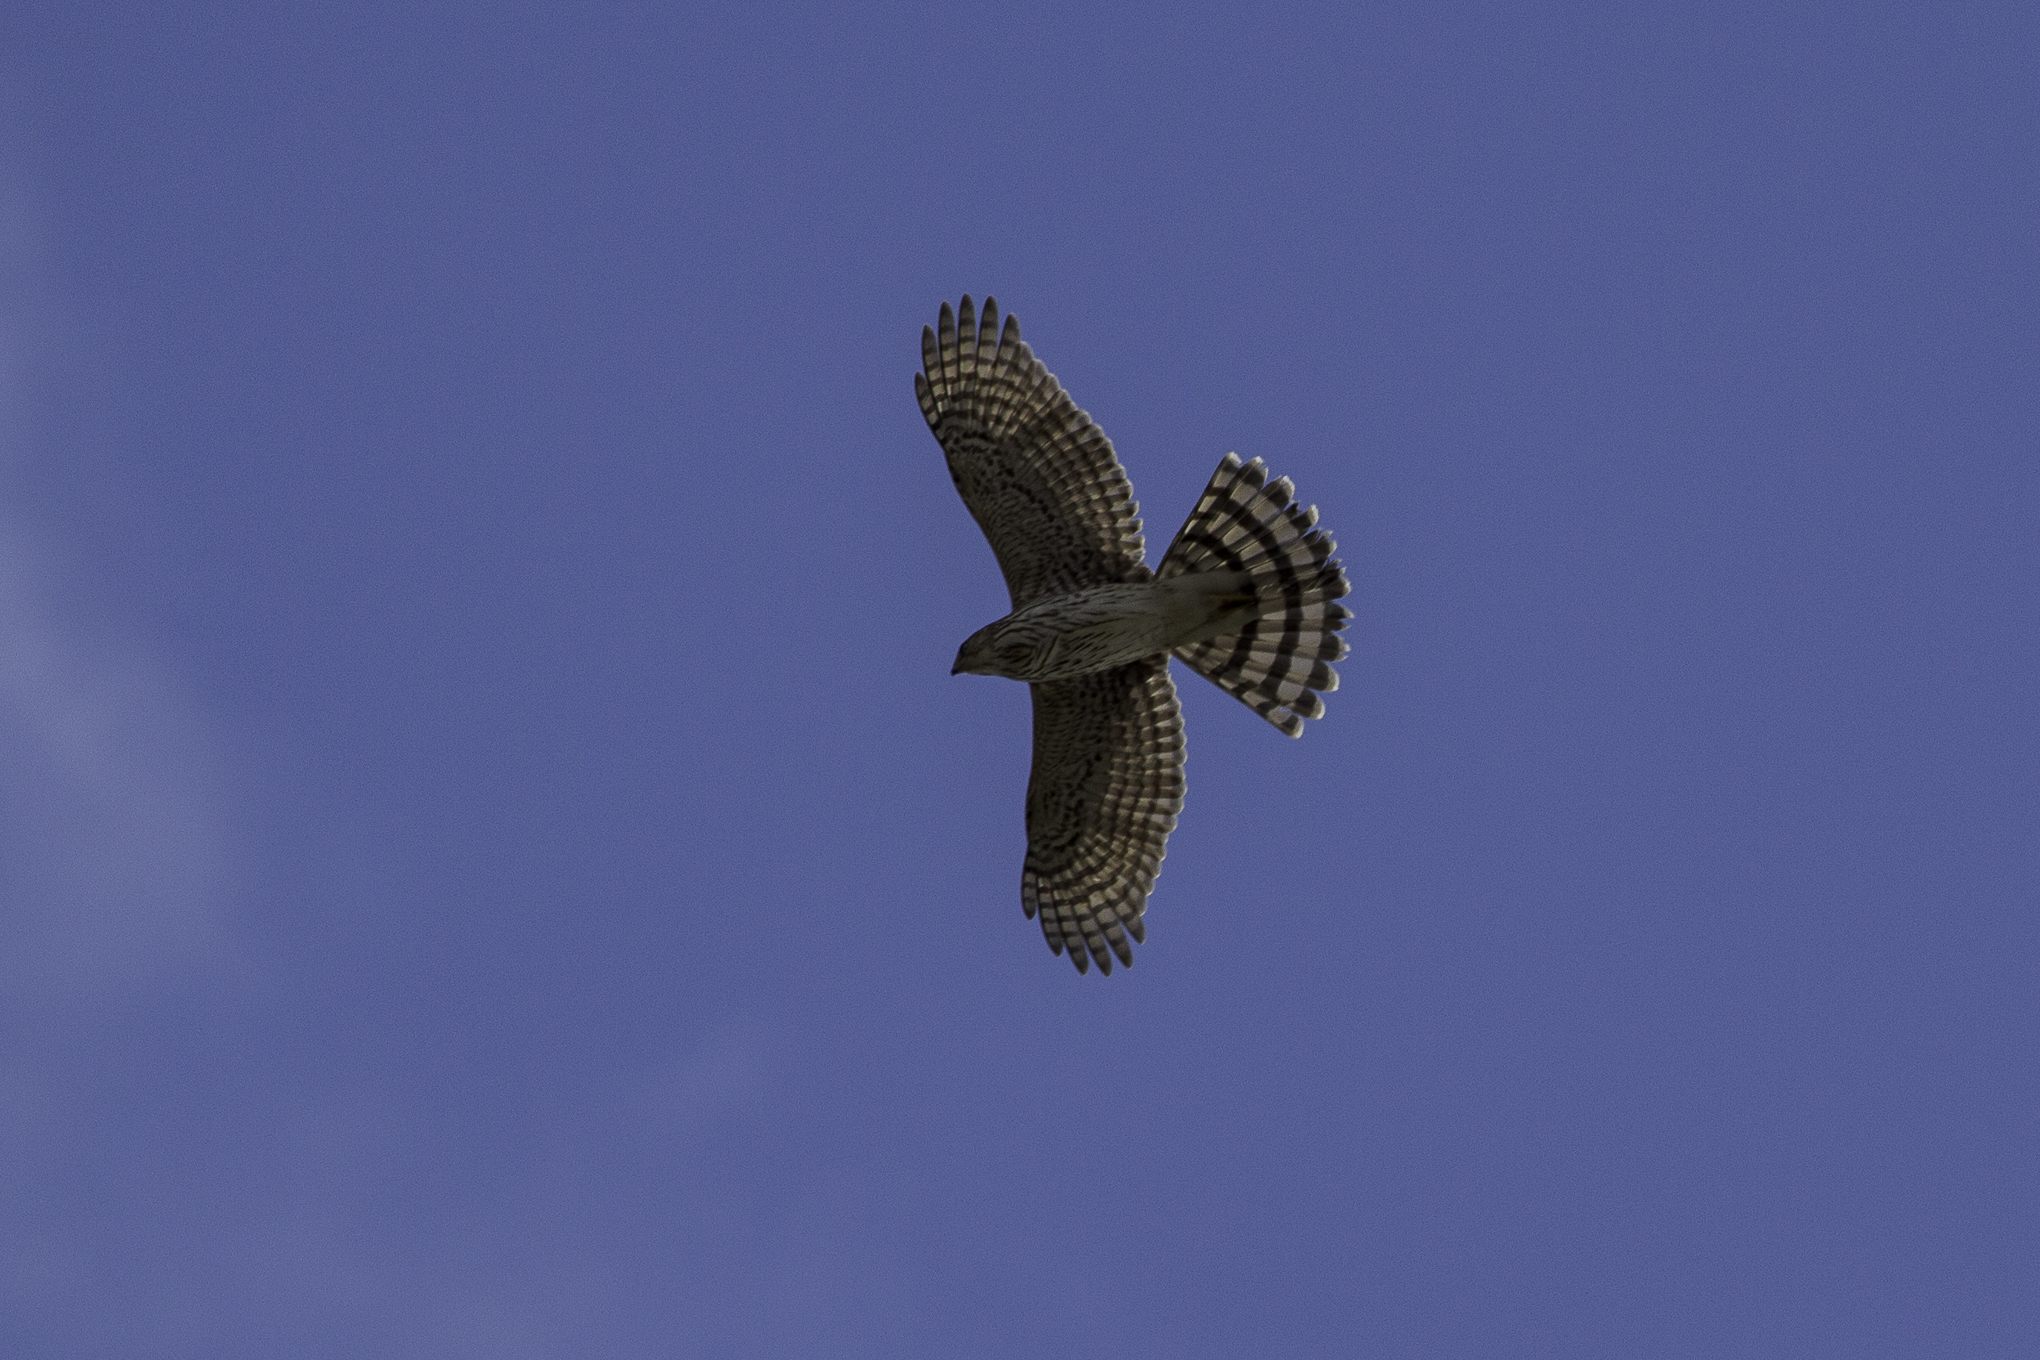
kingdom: Animalia
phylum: Chordata
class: Aves
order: Accipitriformes
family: Accipitridae
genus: Accipiter
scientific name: Accipiter cooperii
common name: Cooper's hawk
